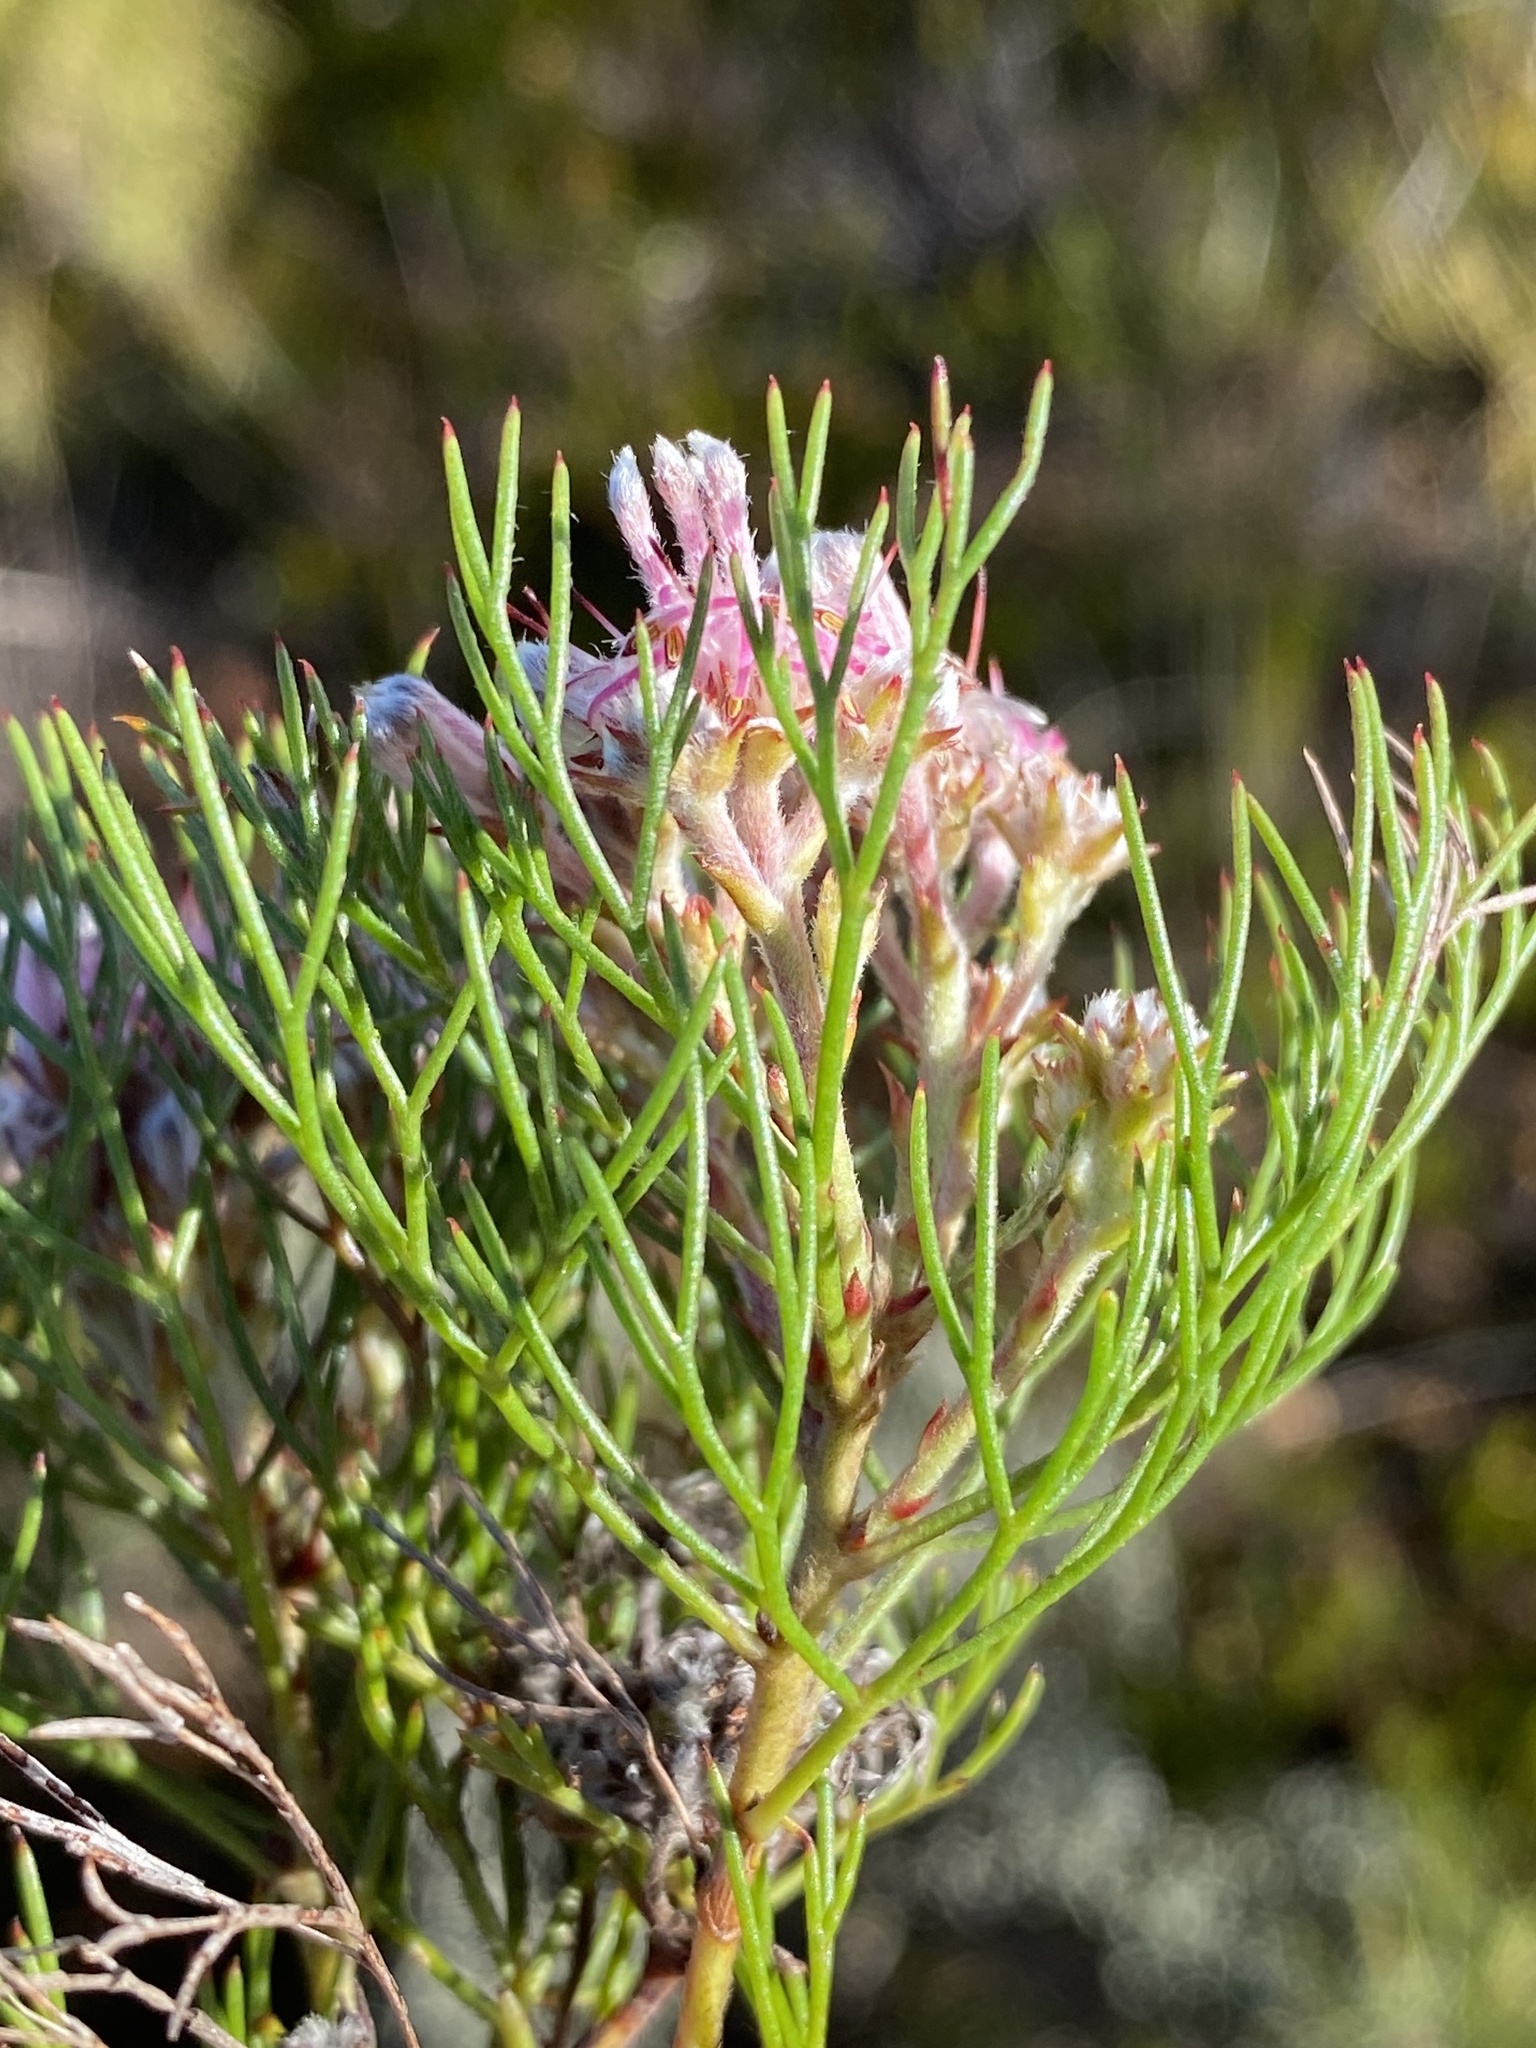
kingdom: Plantae
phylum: Tracheophyta
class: Magnoliopsida
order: Proteales
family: Proteaceae
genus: Serruria
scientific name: Serruria fasciflora
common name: Common pin spiderhead
